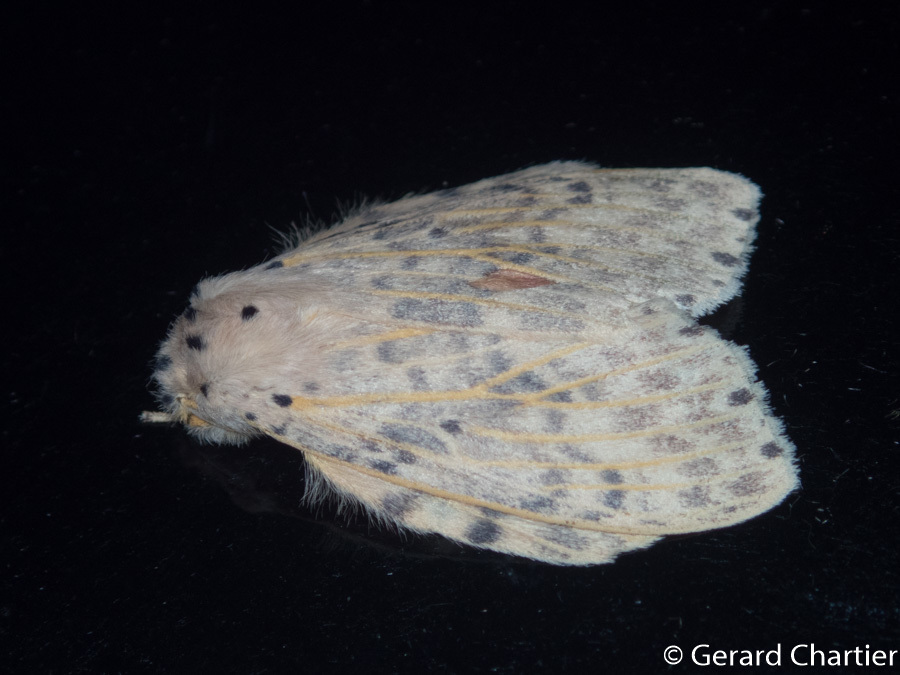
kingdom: Animalia
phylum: Arthropoda
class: Insecta
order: Lepidoptera
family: Notodontidae
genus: Cerasana
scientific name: Cerasana
